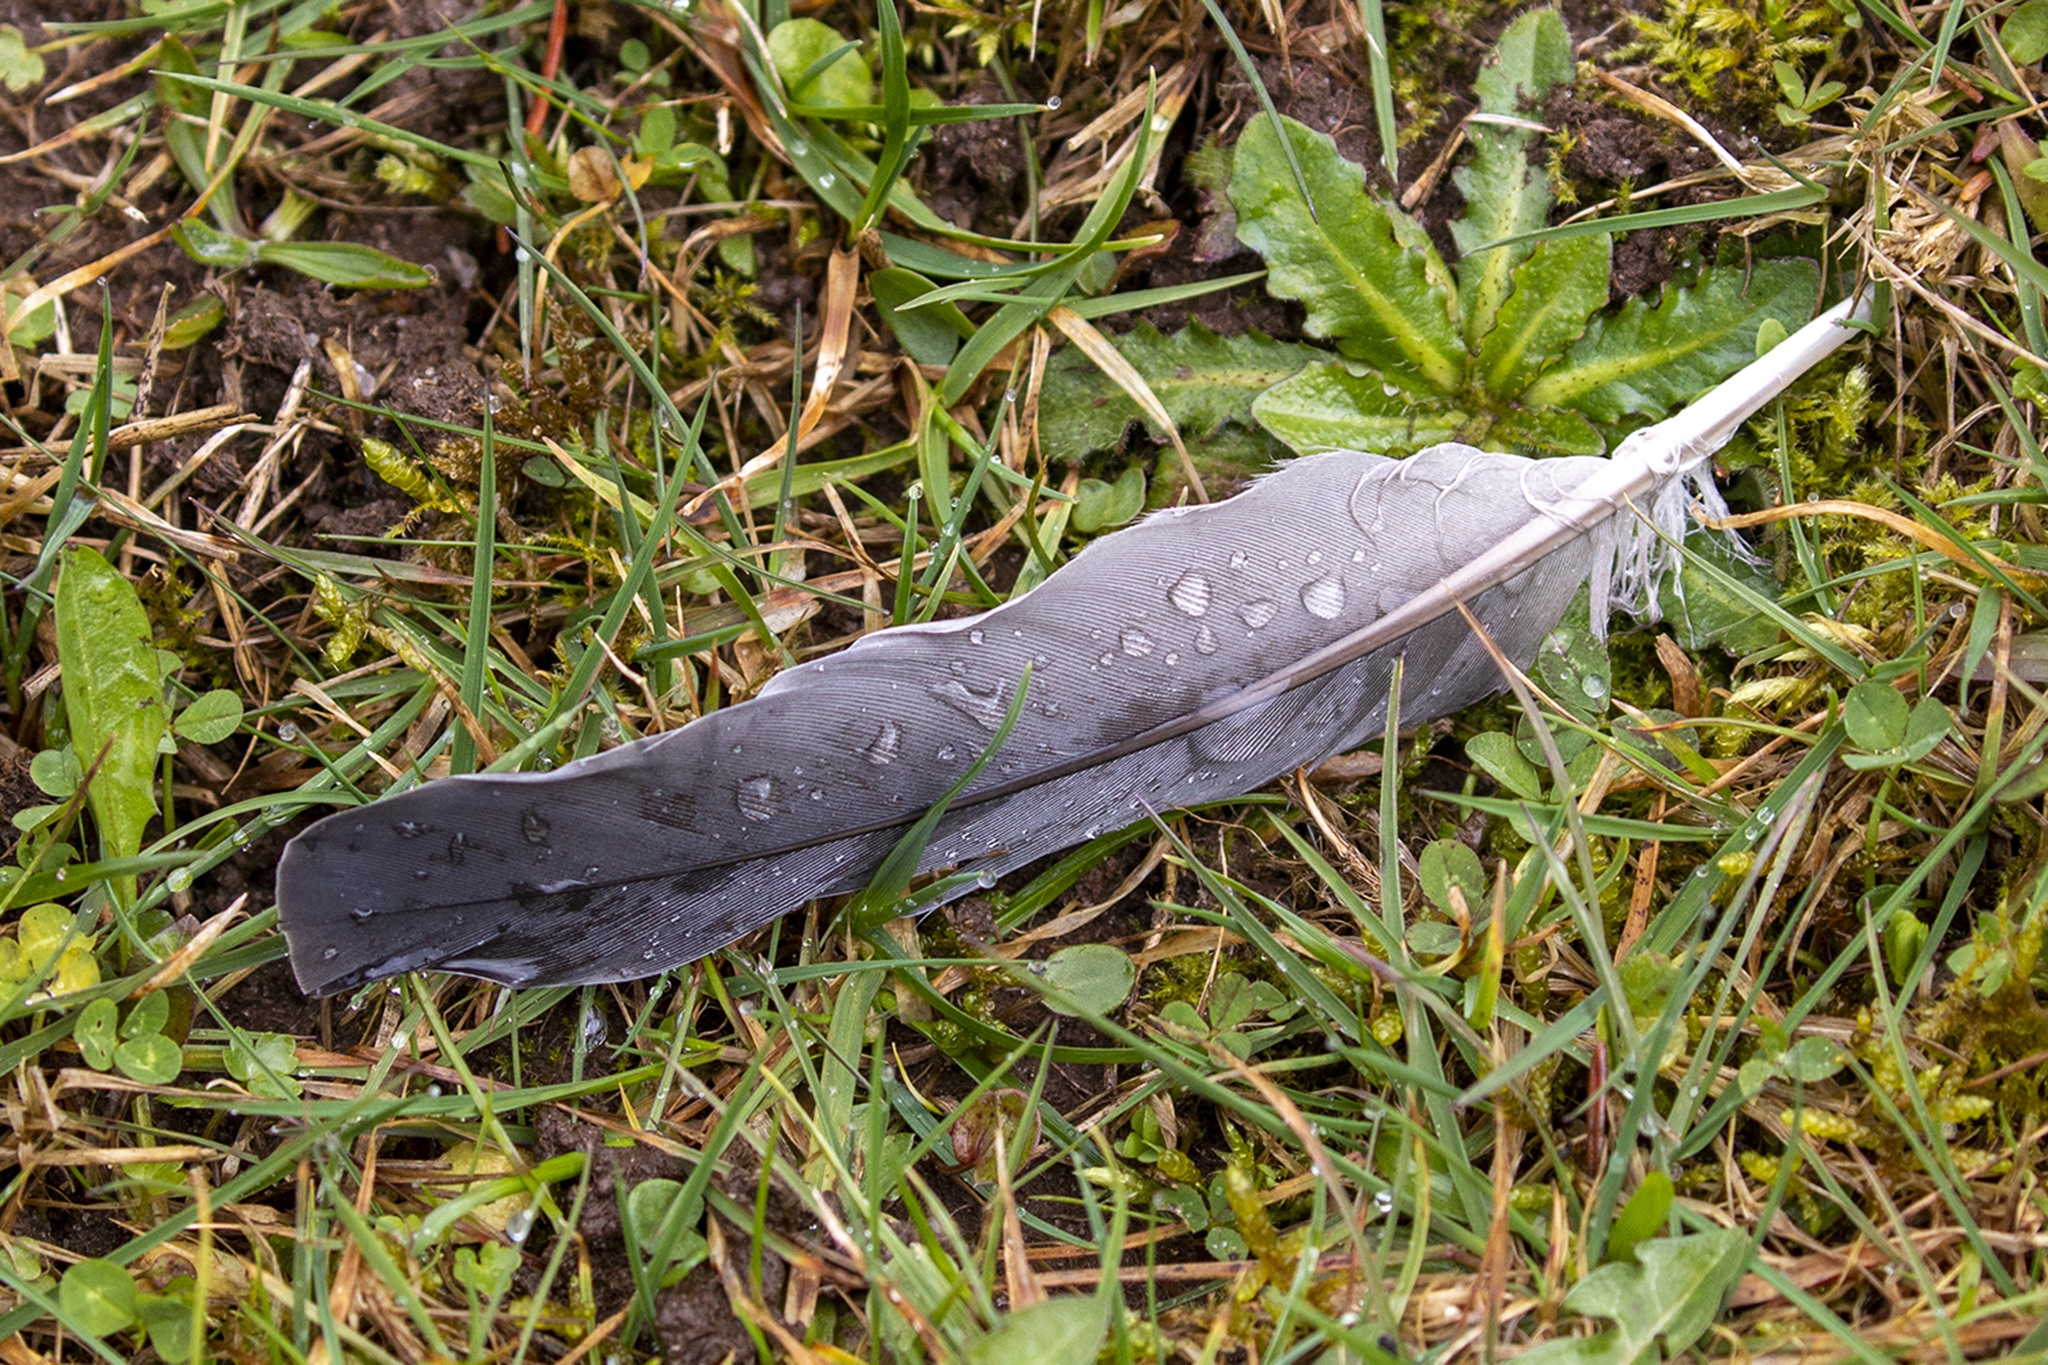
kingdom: Animalia
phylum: Chordata
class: Aves
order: Columbiformes
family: Columbidae
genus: Columba
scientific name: Columba palumbus
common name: Common wood pigeon
